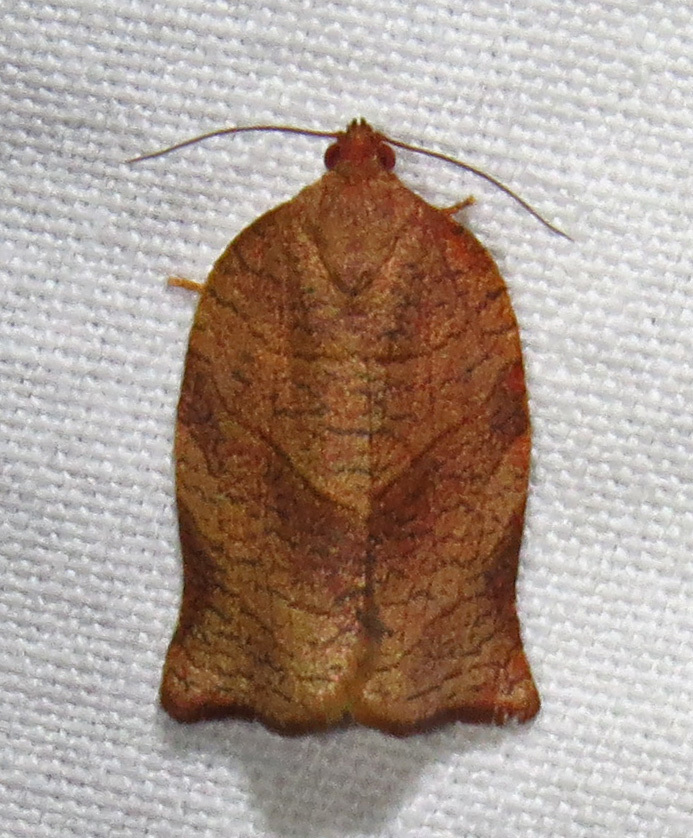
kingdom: Animalia
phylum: Arthropoda
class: Insecta
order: Lepidoptera
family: Tortricidae
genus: Choristoneura
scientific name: Choristoneura rosaceana
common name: Oblique-banded leafroller moth
